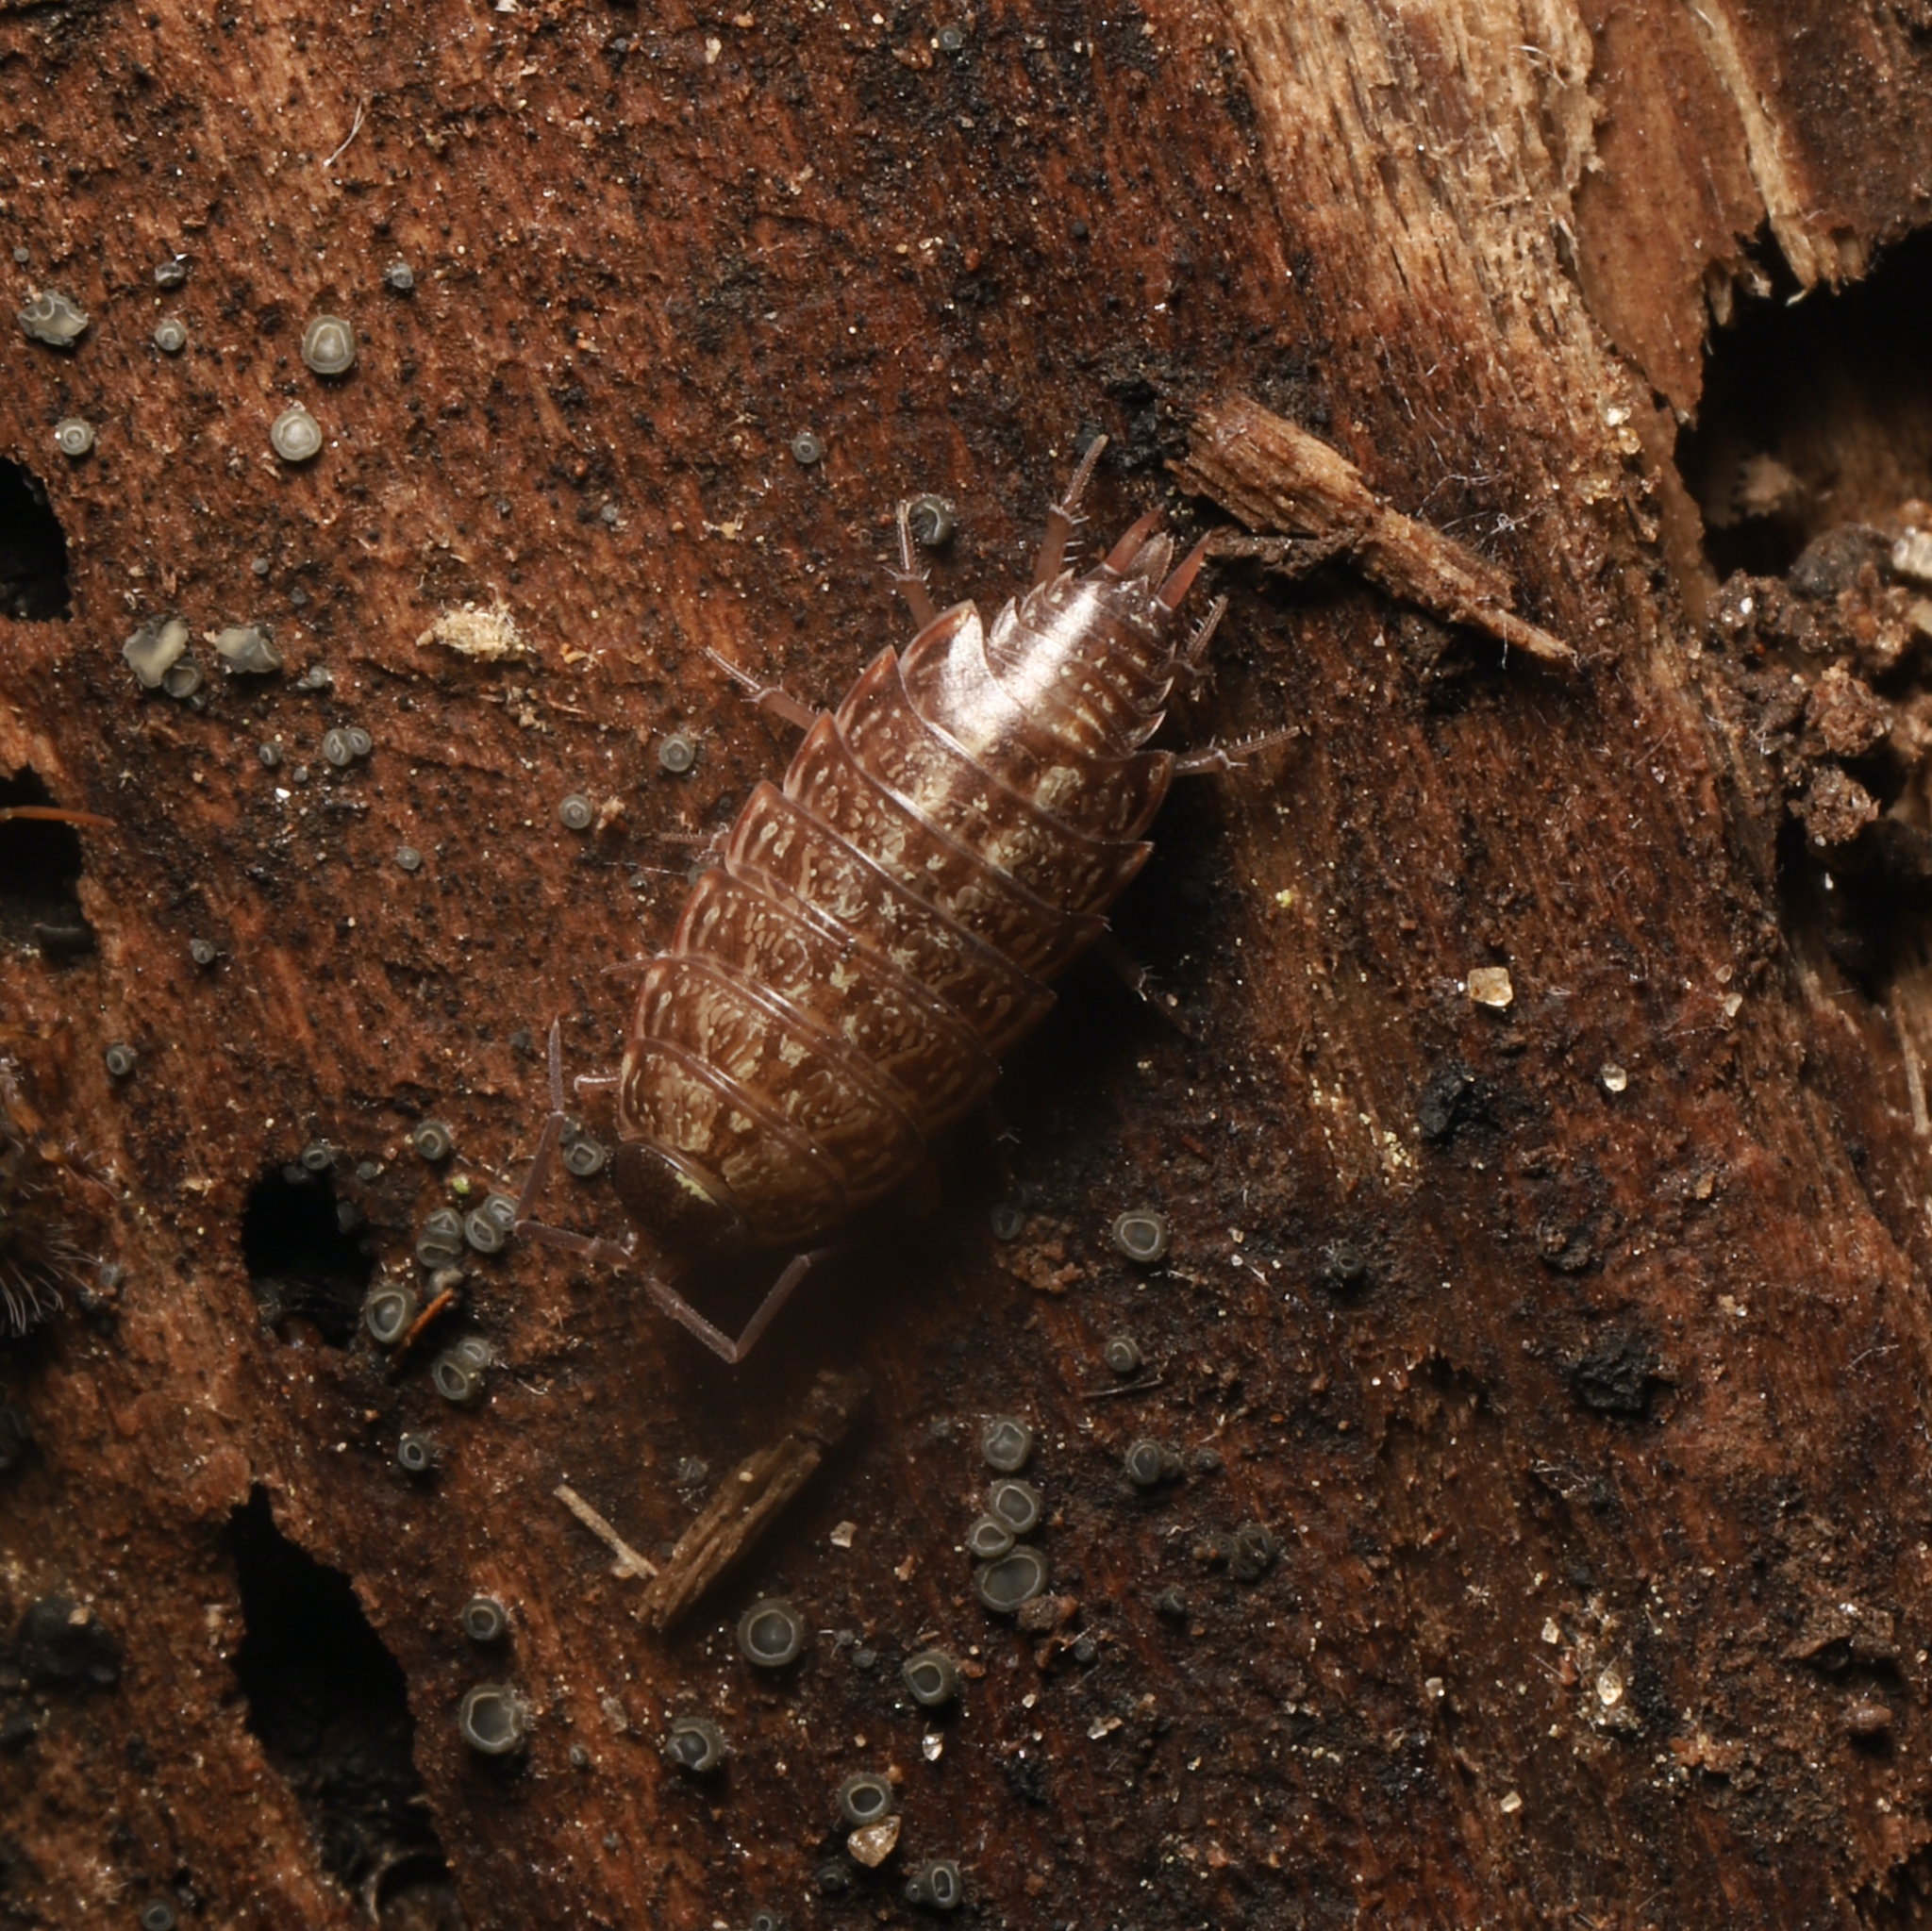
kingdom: Animalia
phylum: Arthropoda
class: Malacostraca
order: Isopoda
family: Philosciidae
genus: Philoscia
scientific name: Philoscia muscorum
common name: Common striped woodlouse
